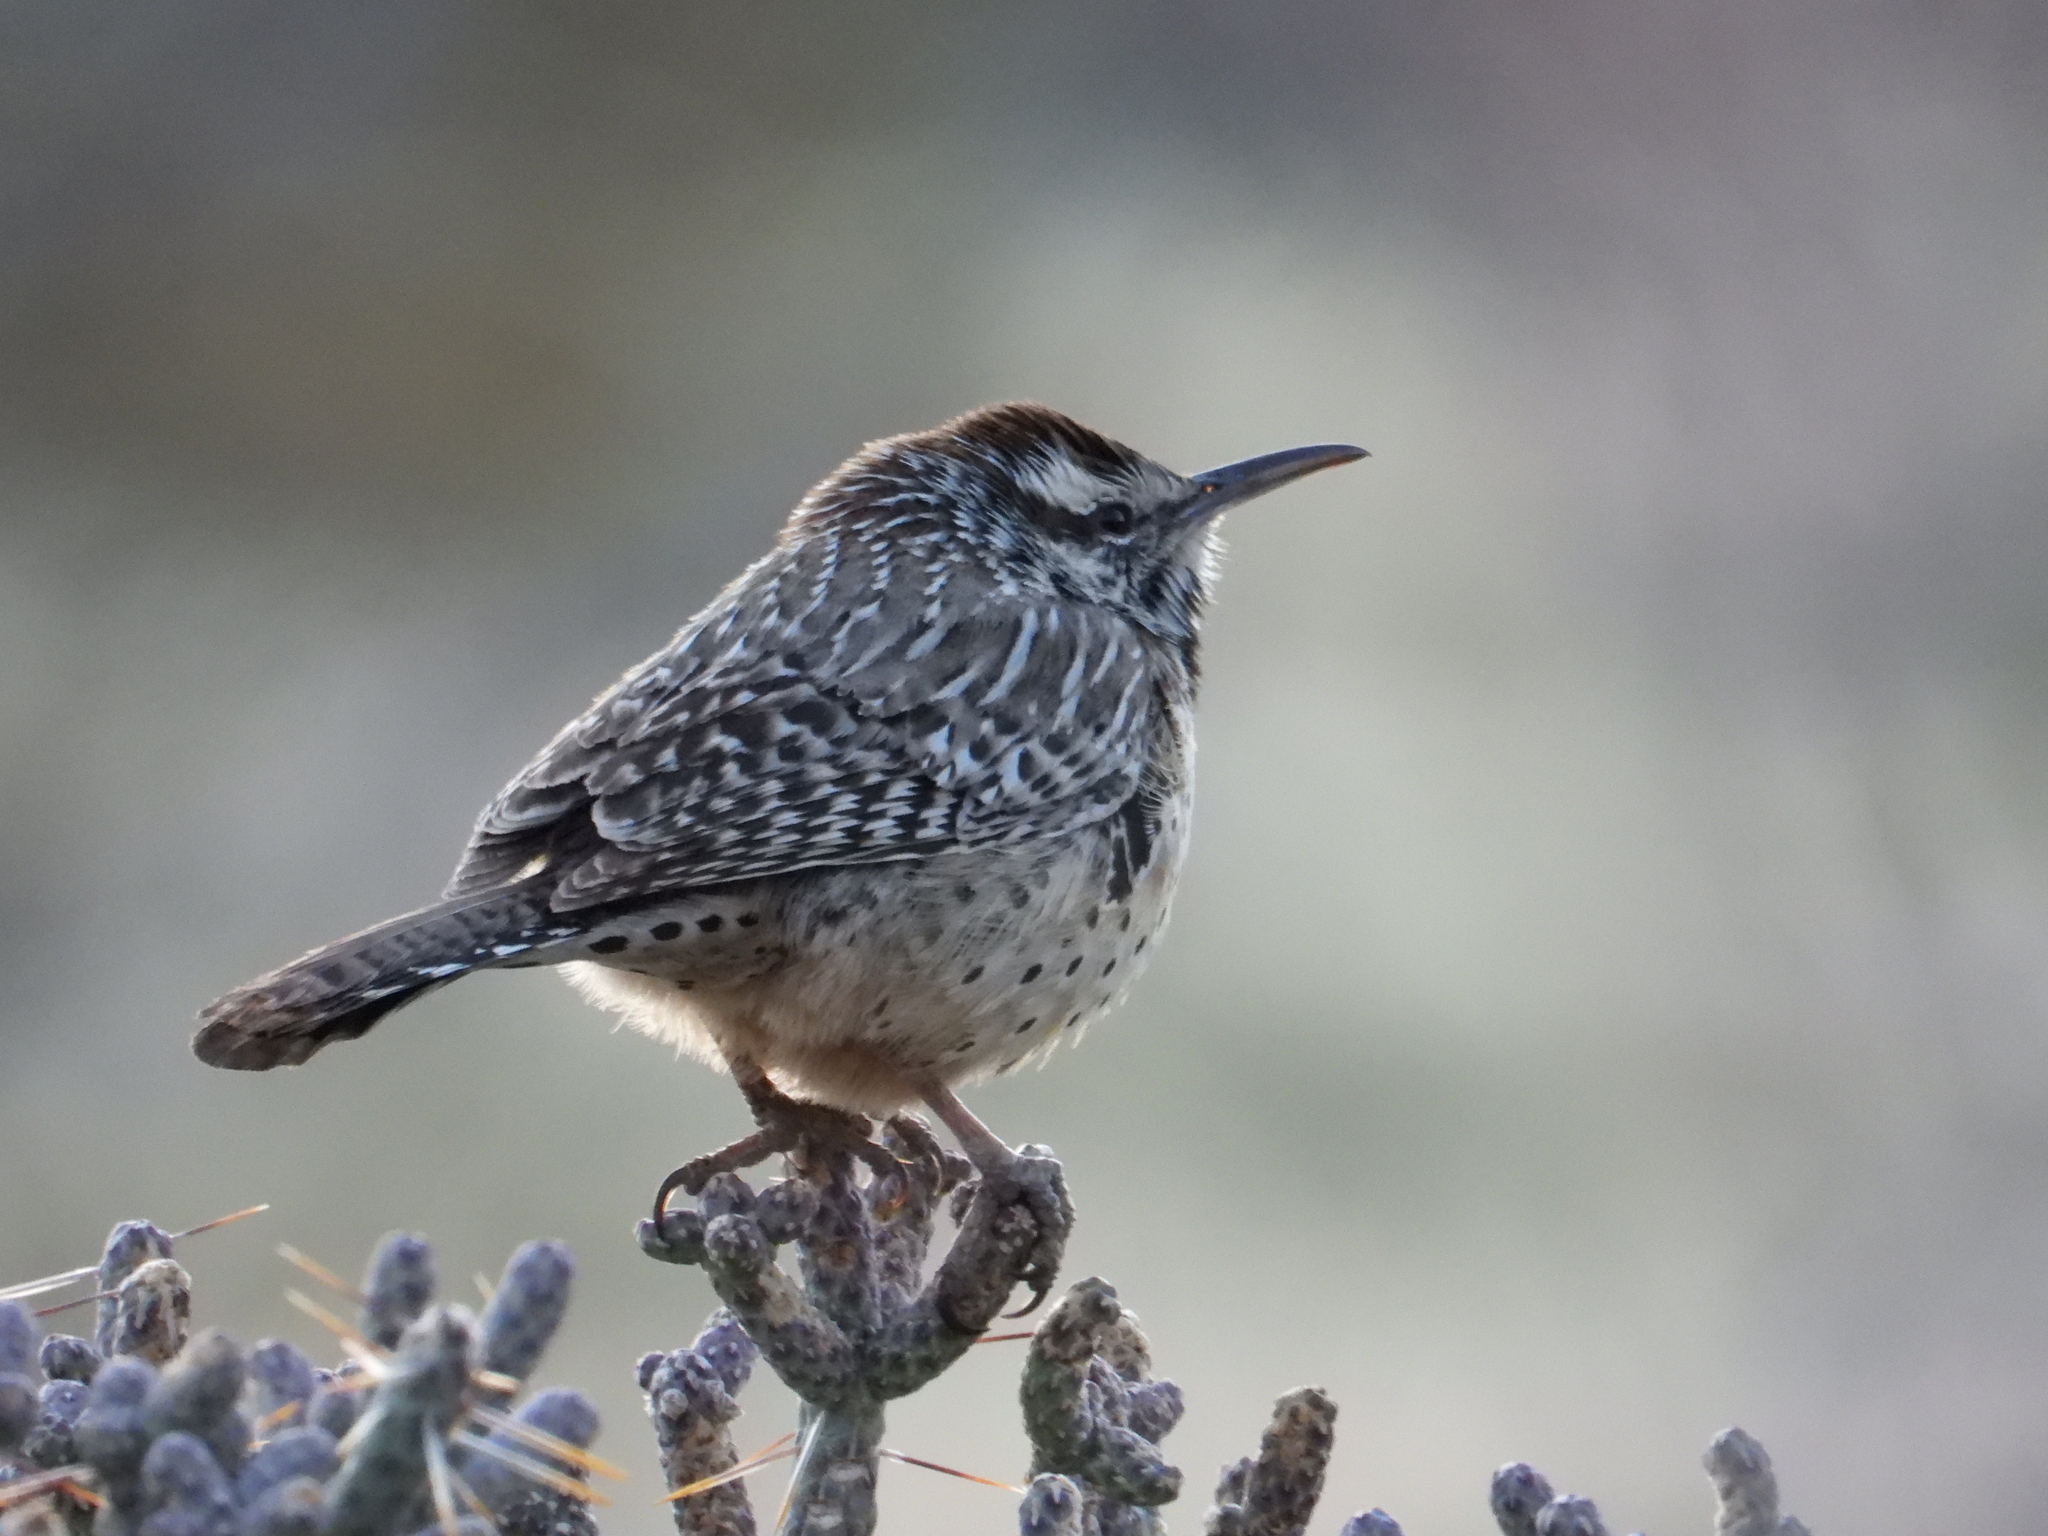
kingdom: Animalia
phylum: Chordata
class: Aves
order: Passeriformes
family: Troglodytidae
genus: Campylorhynchus
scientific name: Campylorhynchus brunneicapillus
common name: Cactus wren
